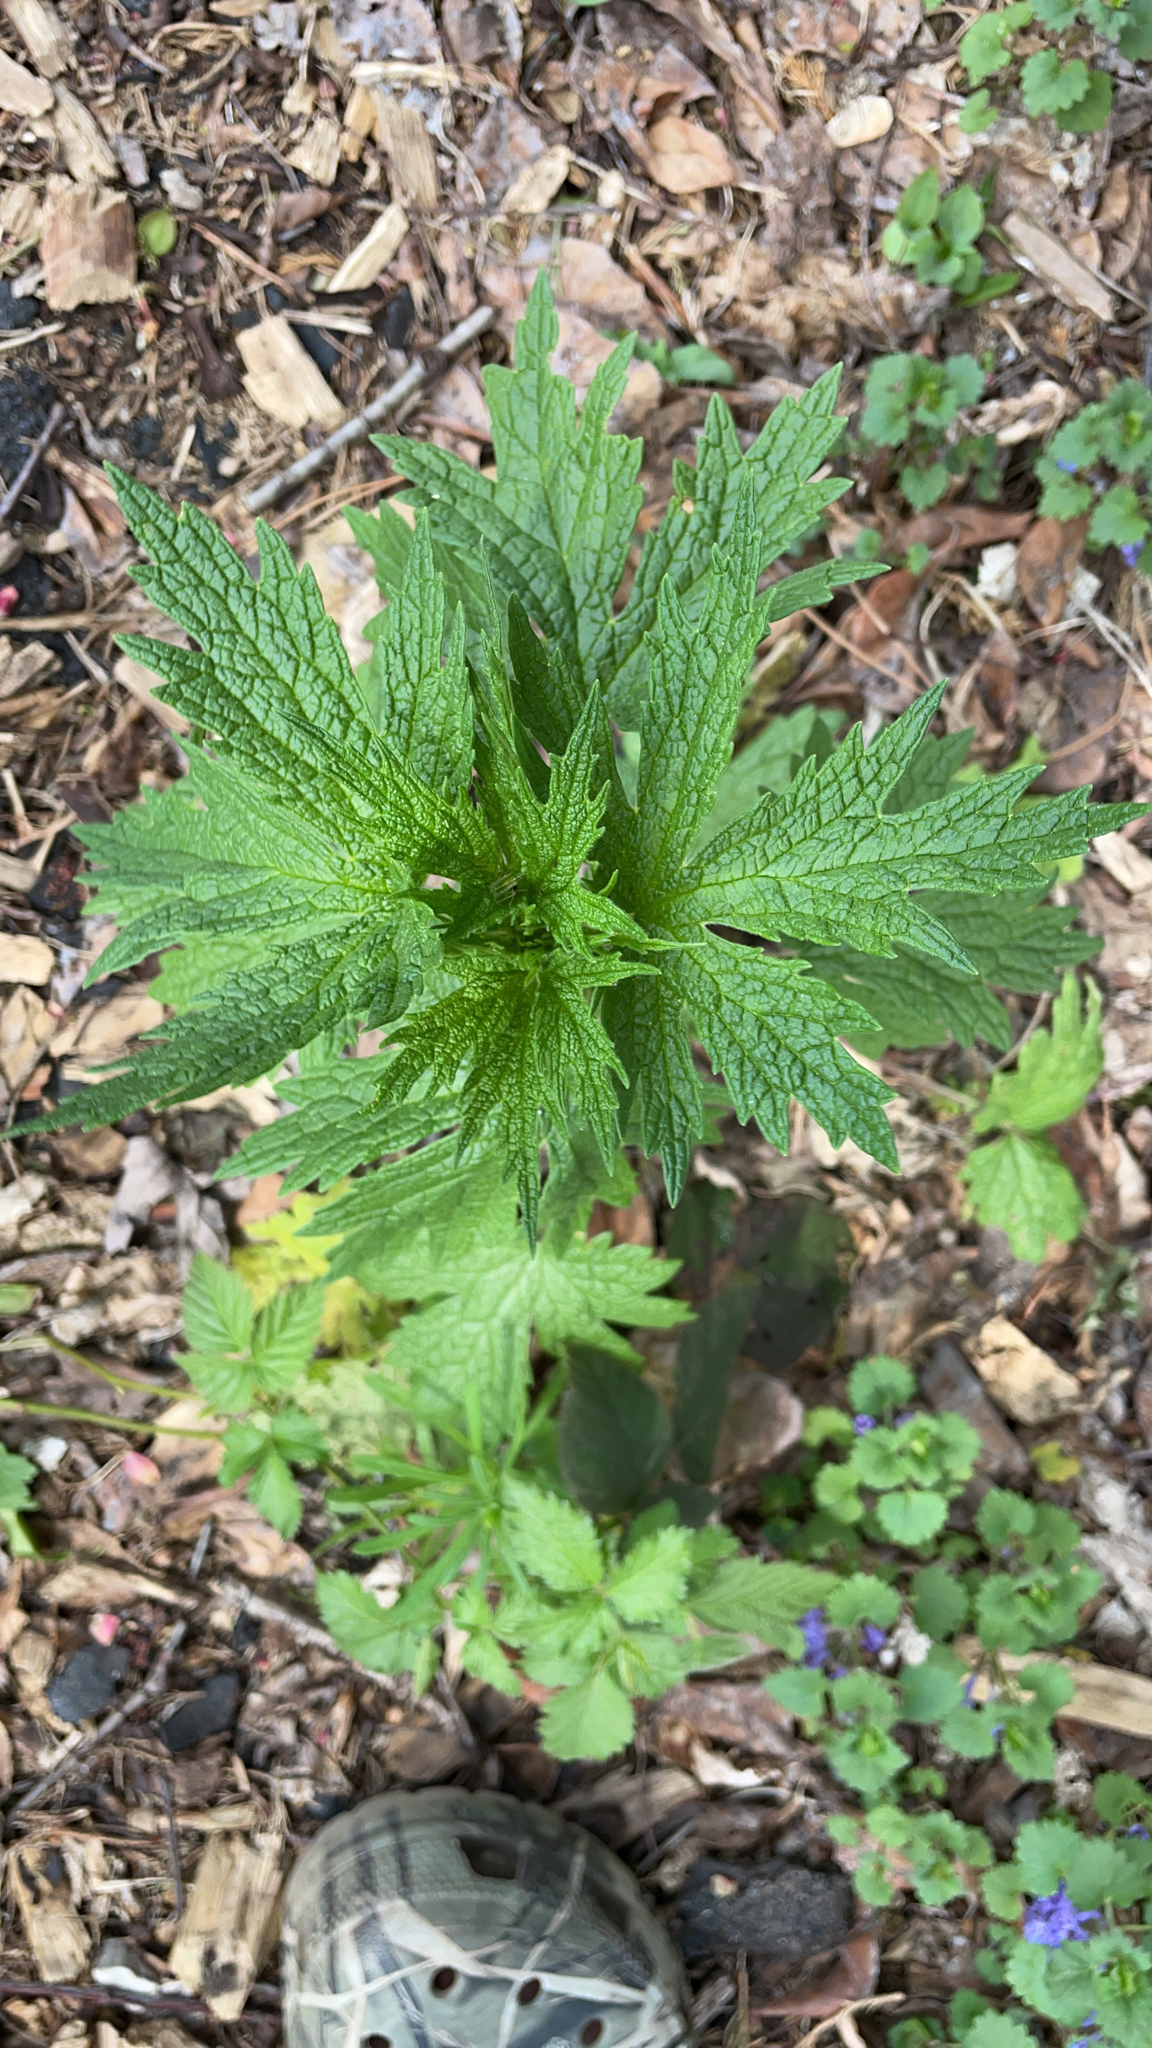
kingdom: Plantae
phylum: Tracheophyta
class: Magnoliopsida
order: Lamiales
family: Lamiaceae
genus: Leonurus
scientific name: Leonurus cardiaca
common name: Motherwort
